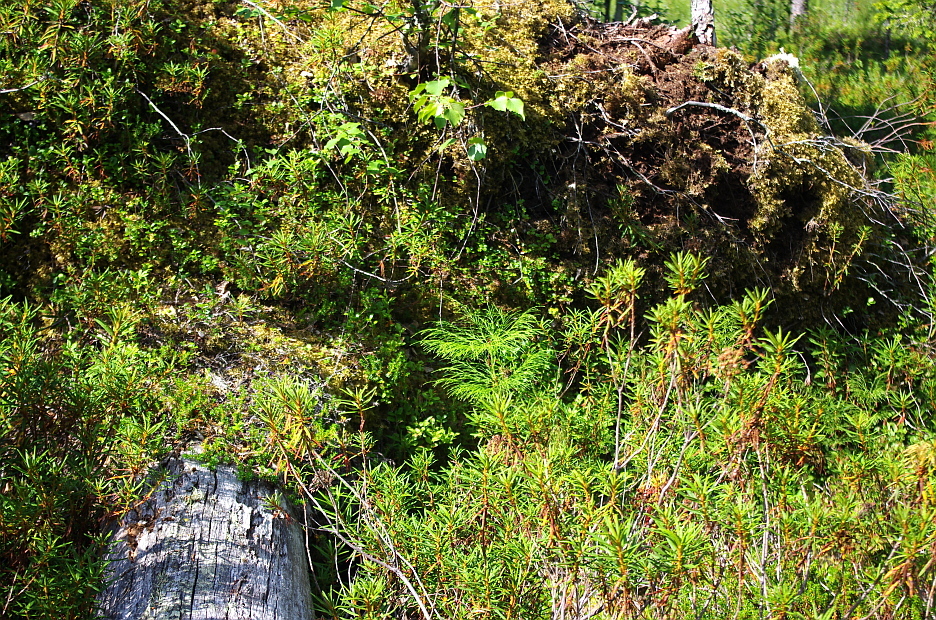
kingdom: Plantae
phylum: Tracheophyta
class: Magnoliopsida
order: Ericales
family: Ericaceae
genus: Rhododendron
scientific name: Rhododendron tomentosum
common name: Marsh labrador tea
